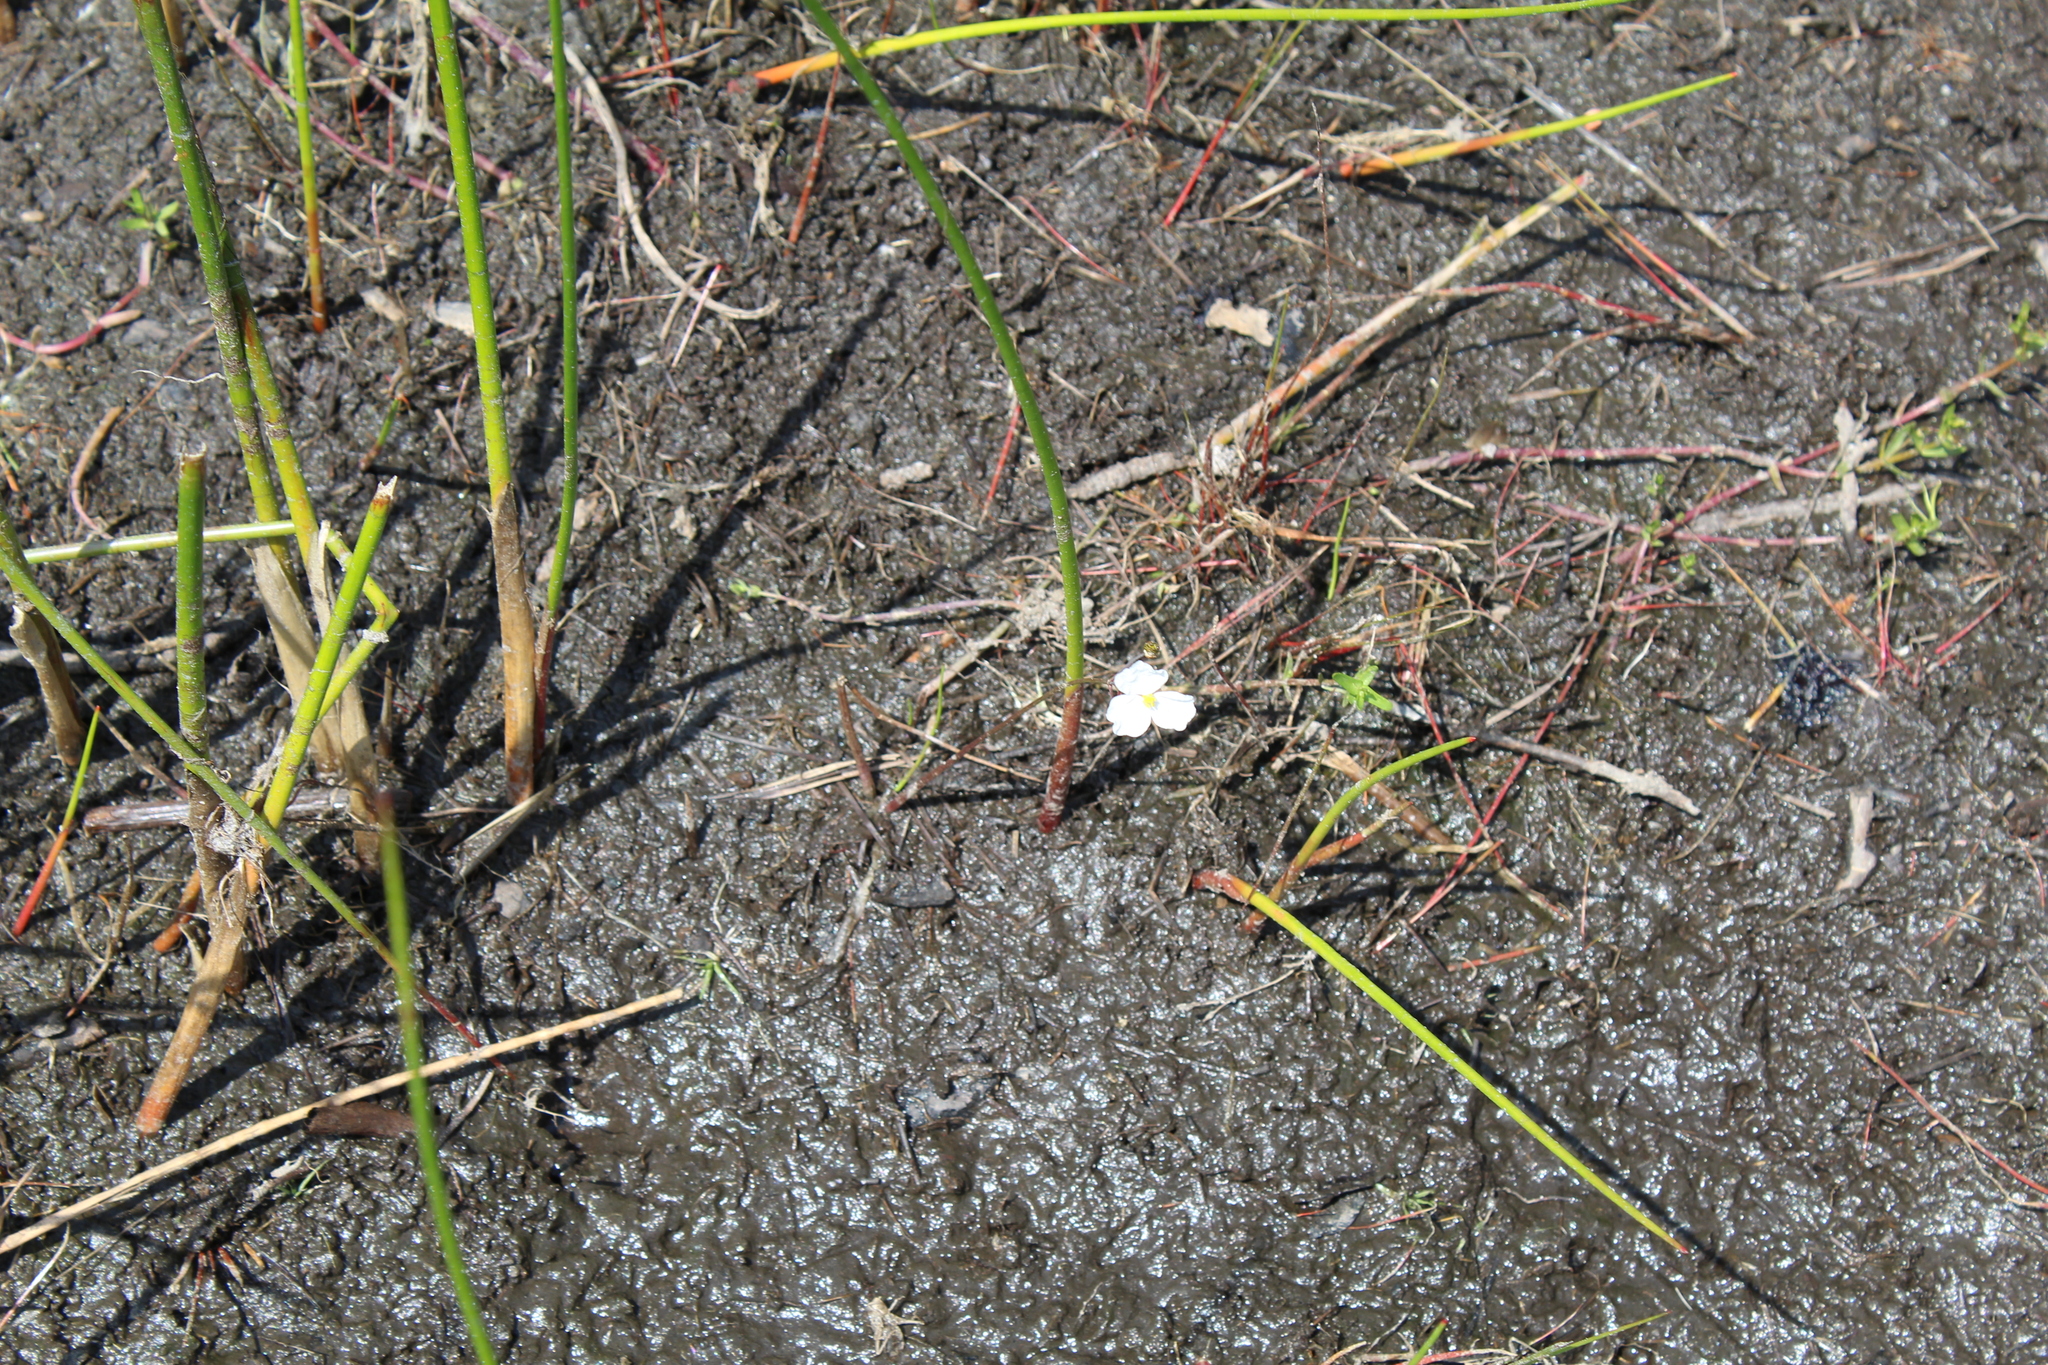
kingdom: Plantae
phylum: Tracheophyta
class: Liliopsida
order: Alismatales
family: Alismataceae
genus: Sagittaria
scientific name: Sagittaria teres
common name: Quill-leaf sagittaria
